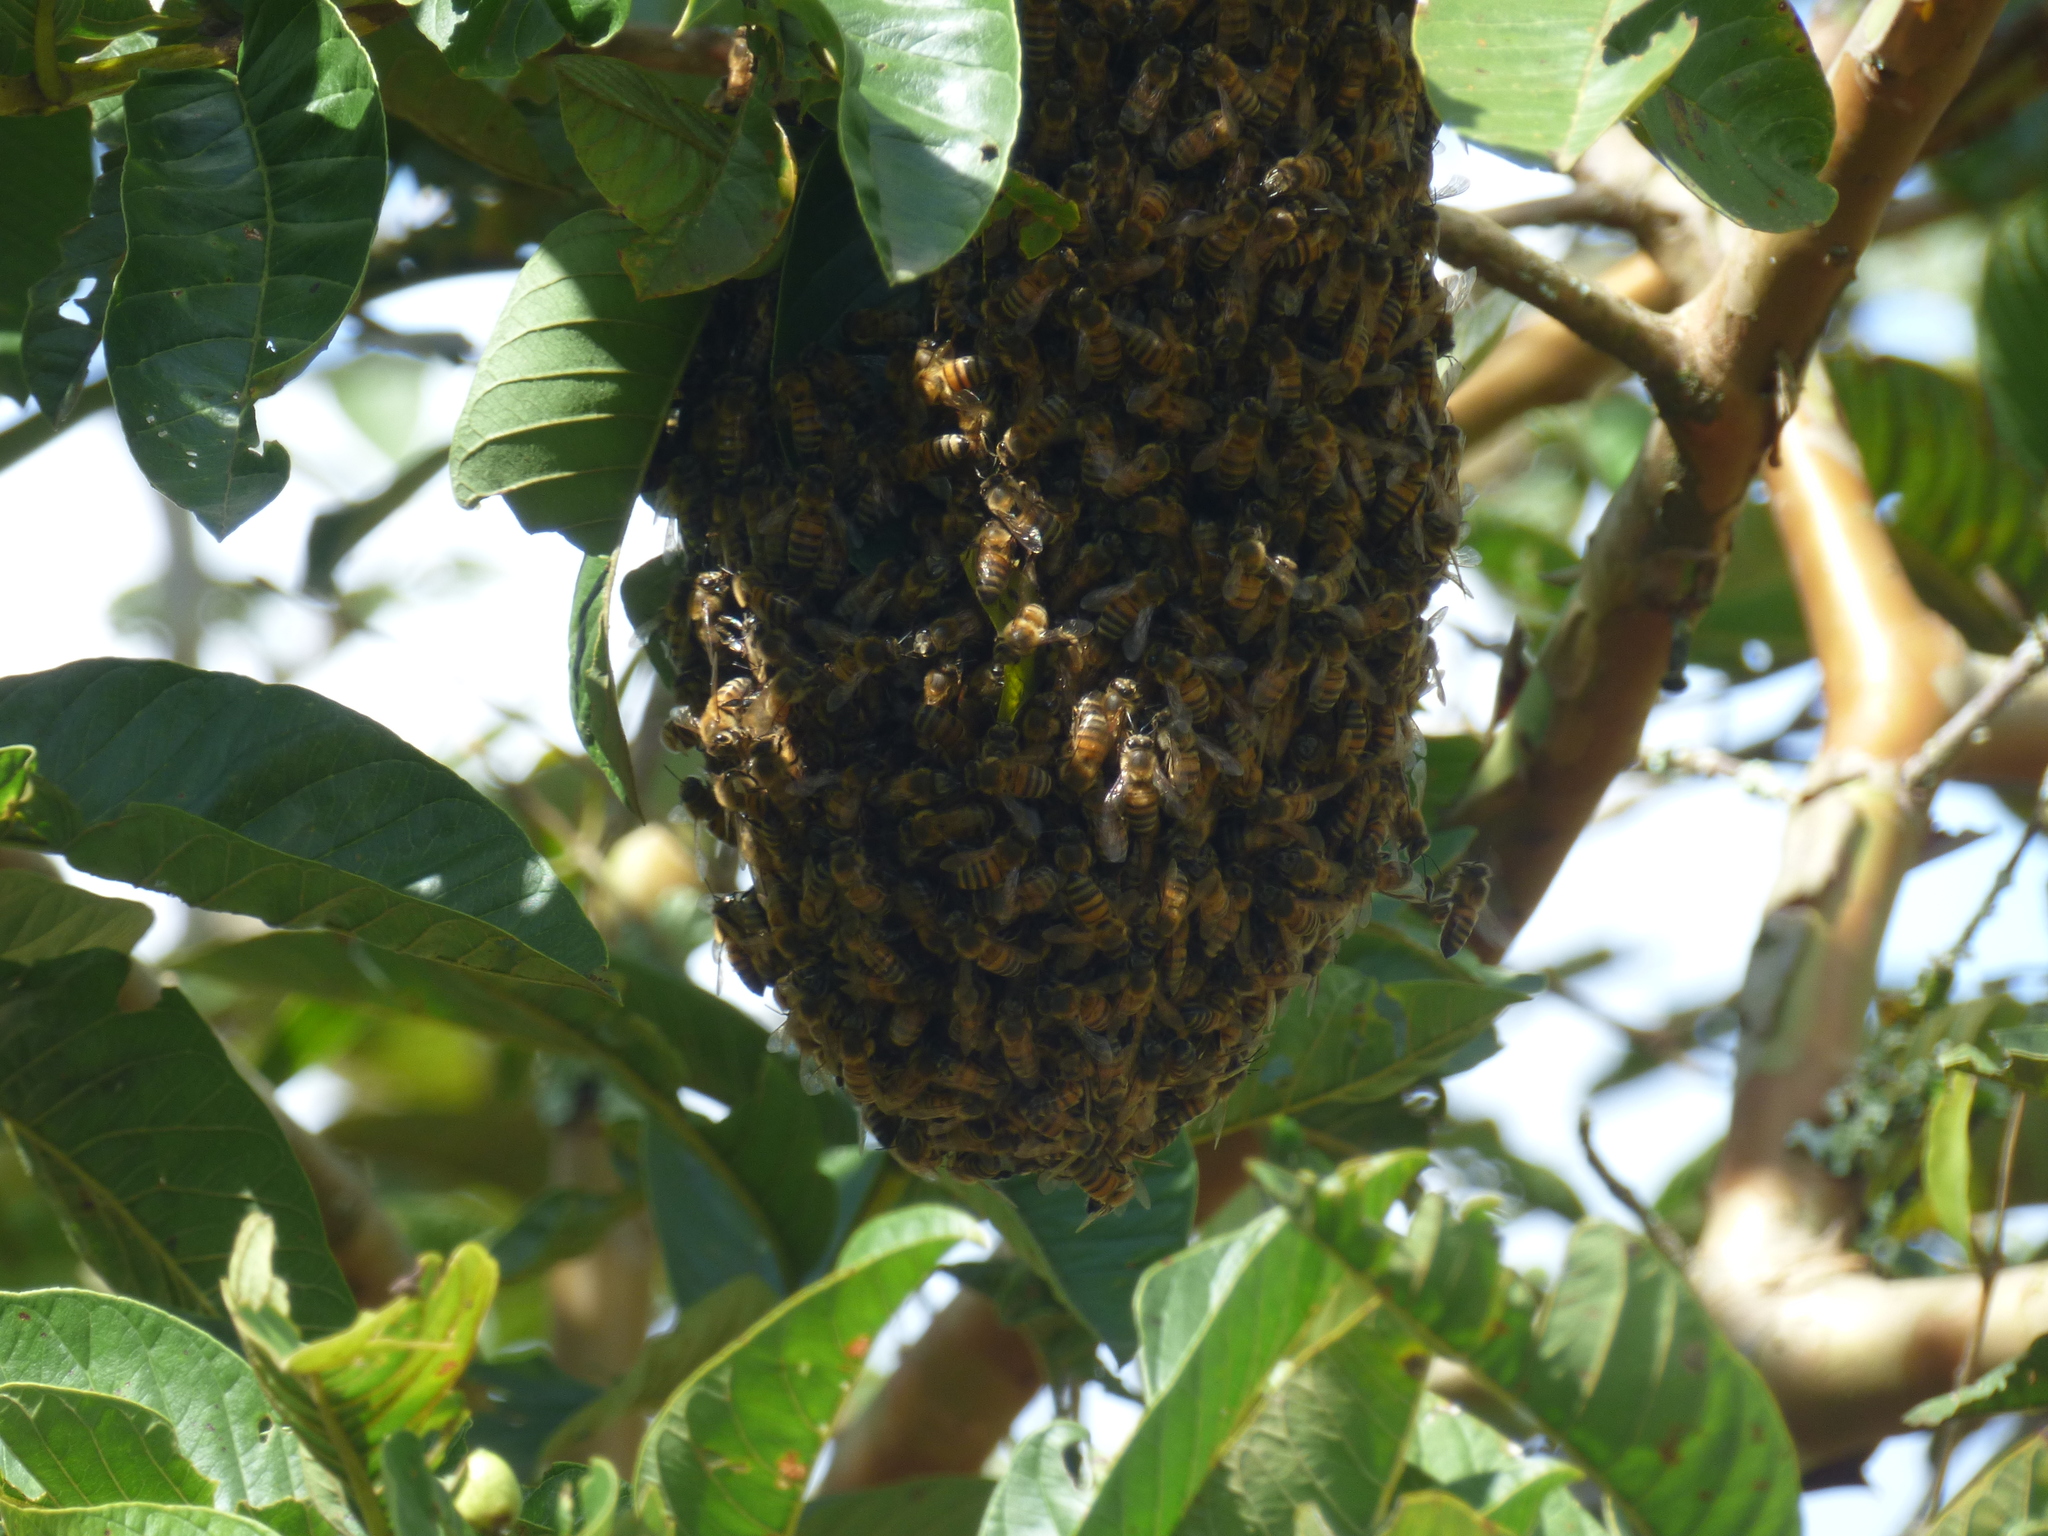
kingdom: Animalia
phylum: Arthropoda
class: Insecta
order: Hymenoptera
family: Apidae
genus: Apis
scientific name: Apis mellifera
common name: Honey bee
